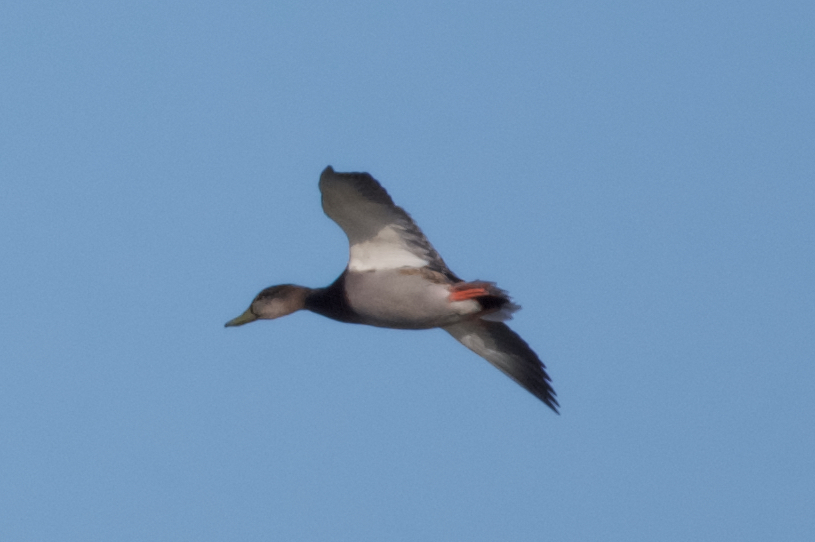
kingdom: Animalia
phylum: Chordata
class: Aves
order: Anseriformes
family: Anatidae
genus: Anas
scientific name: Anas platyrhynchos
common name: Mallard
